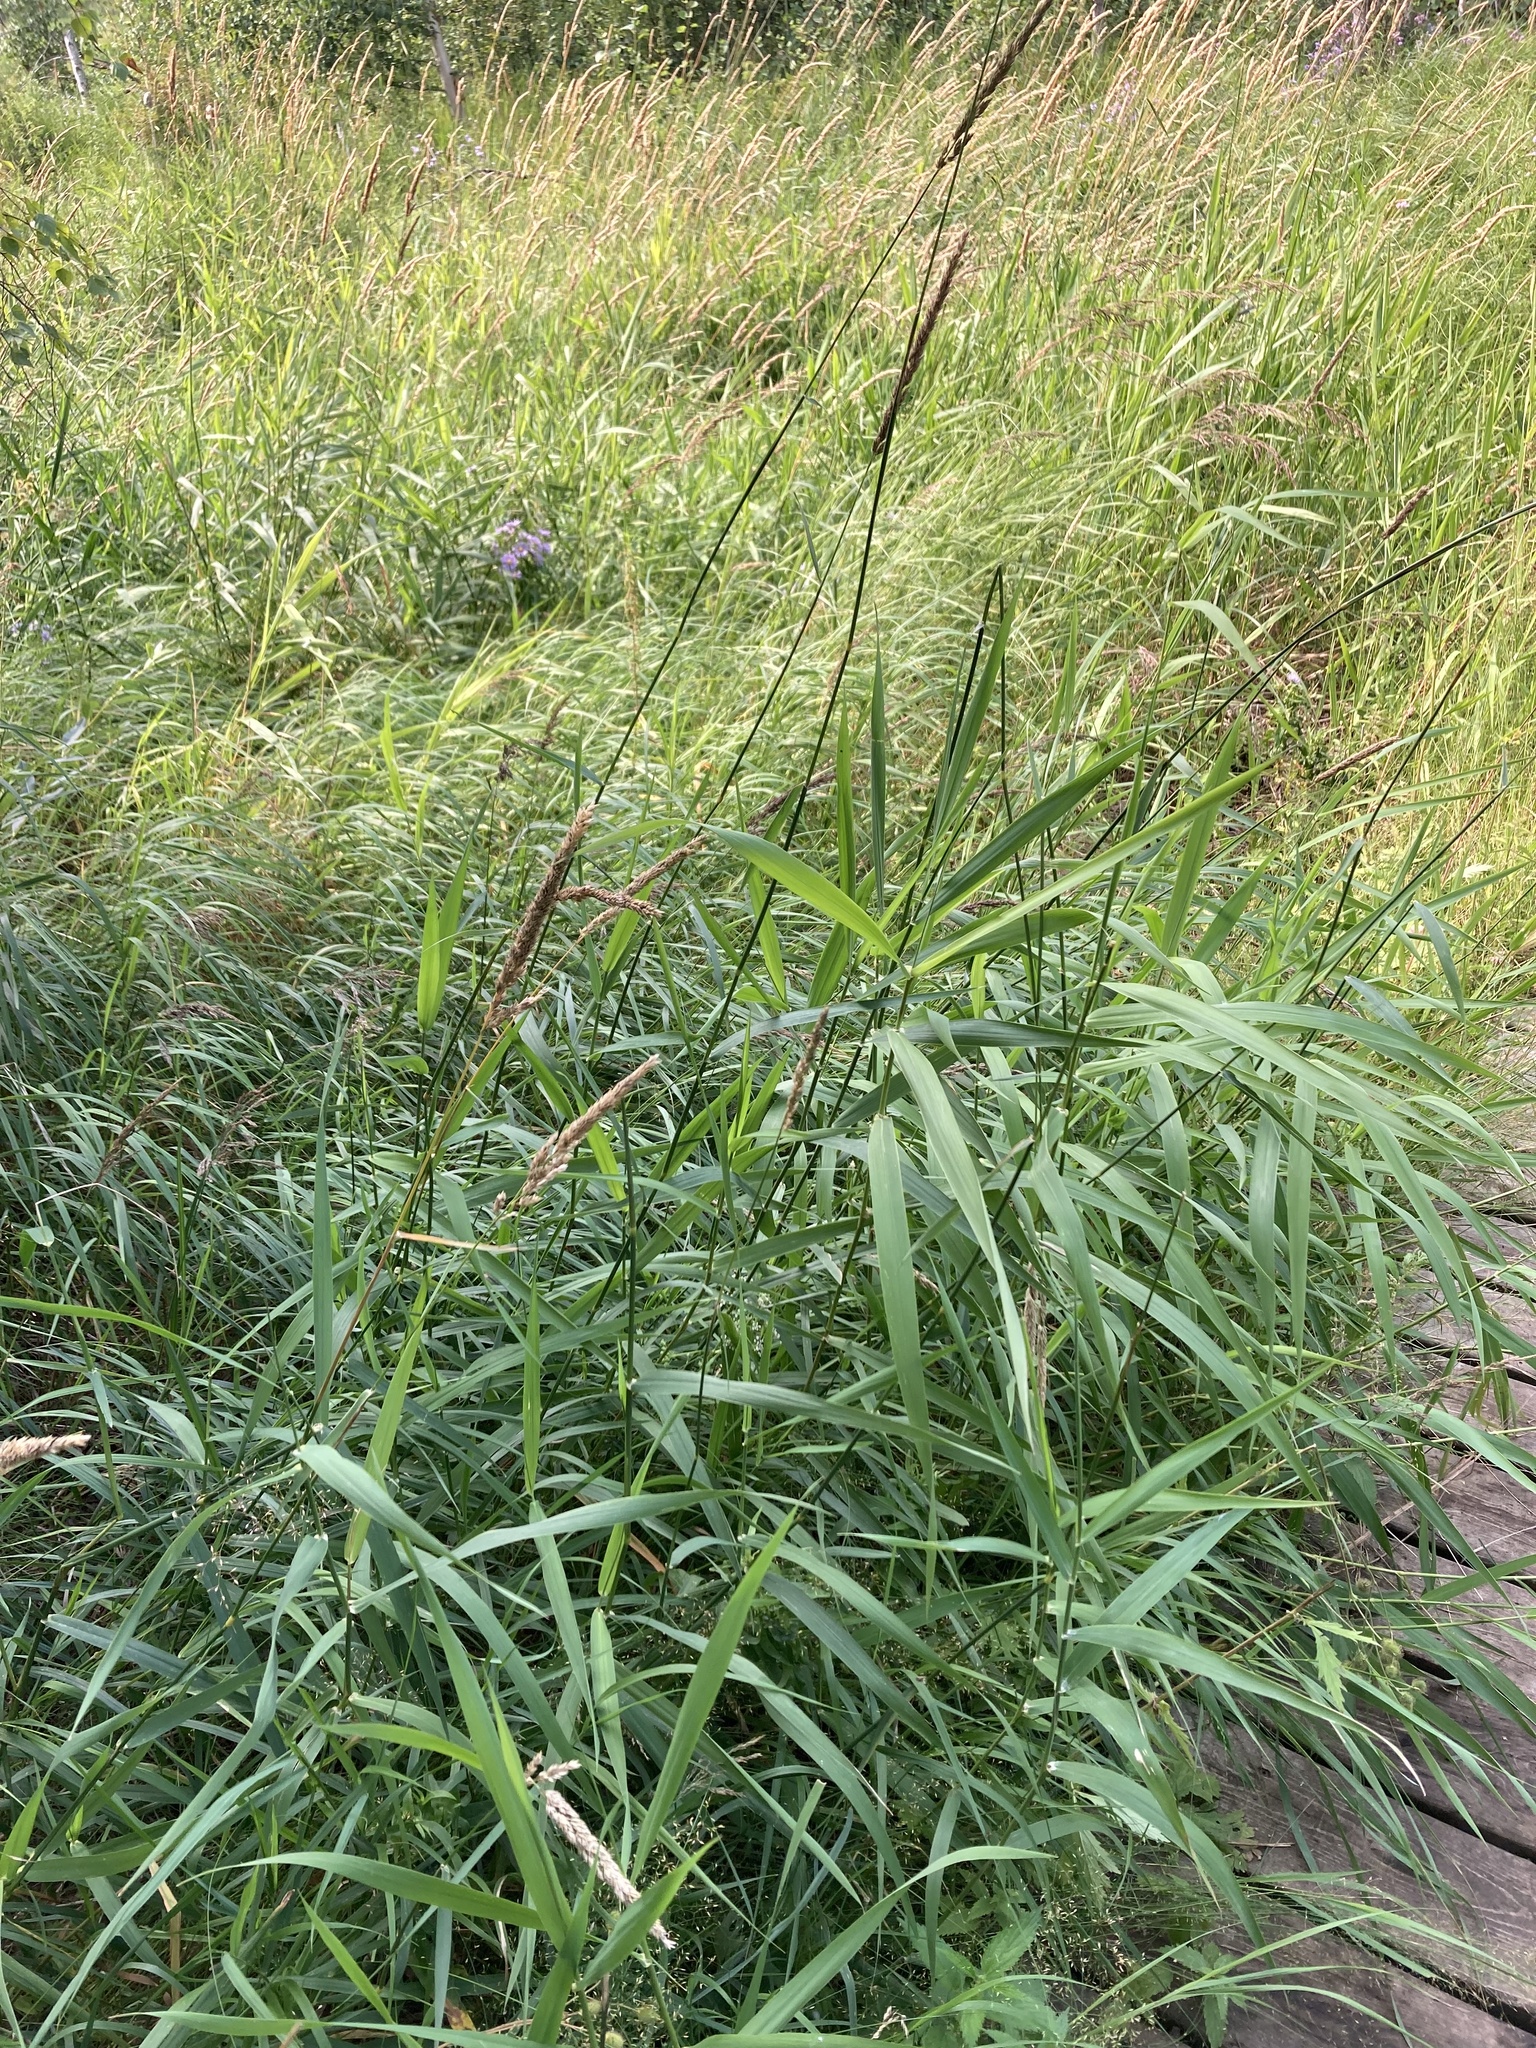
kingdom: Plantae
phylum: Tracheophyta
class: Liliopsida
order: Poales
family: Poaceae
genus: Phalaris
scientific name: Phalaris arundinacea
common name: Reed canary-grass
